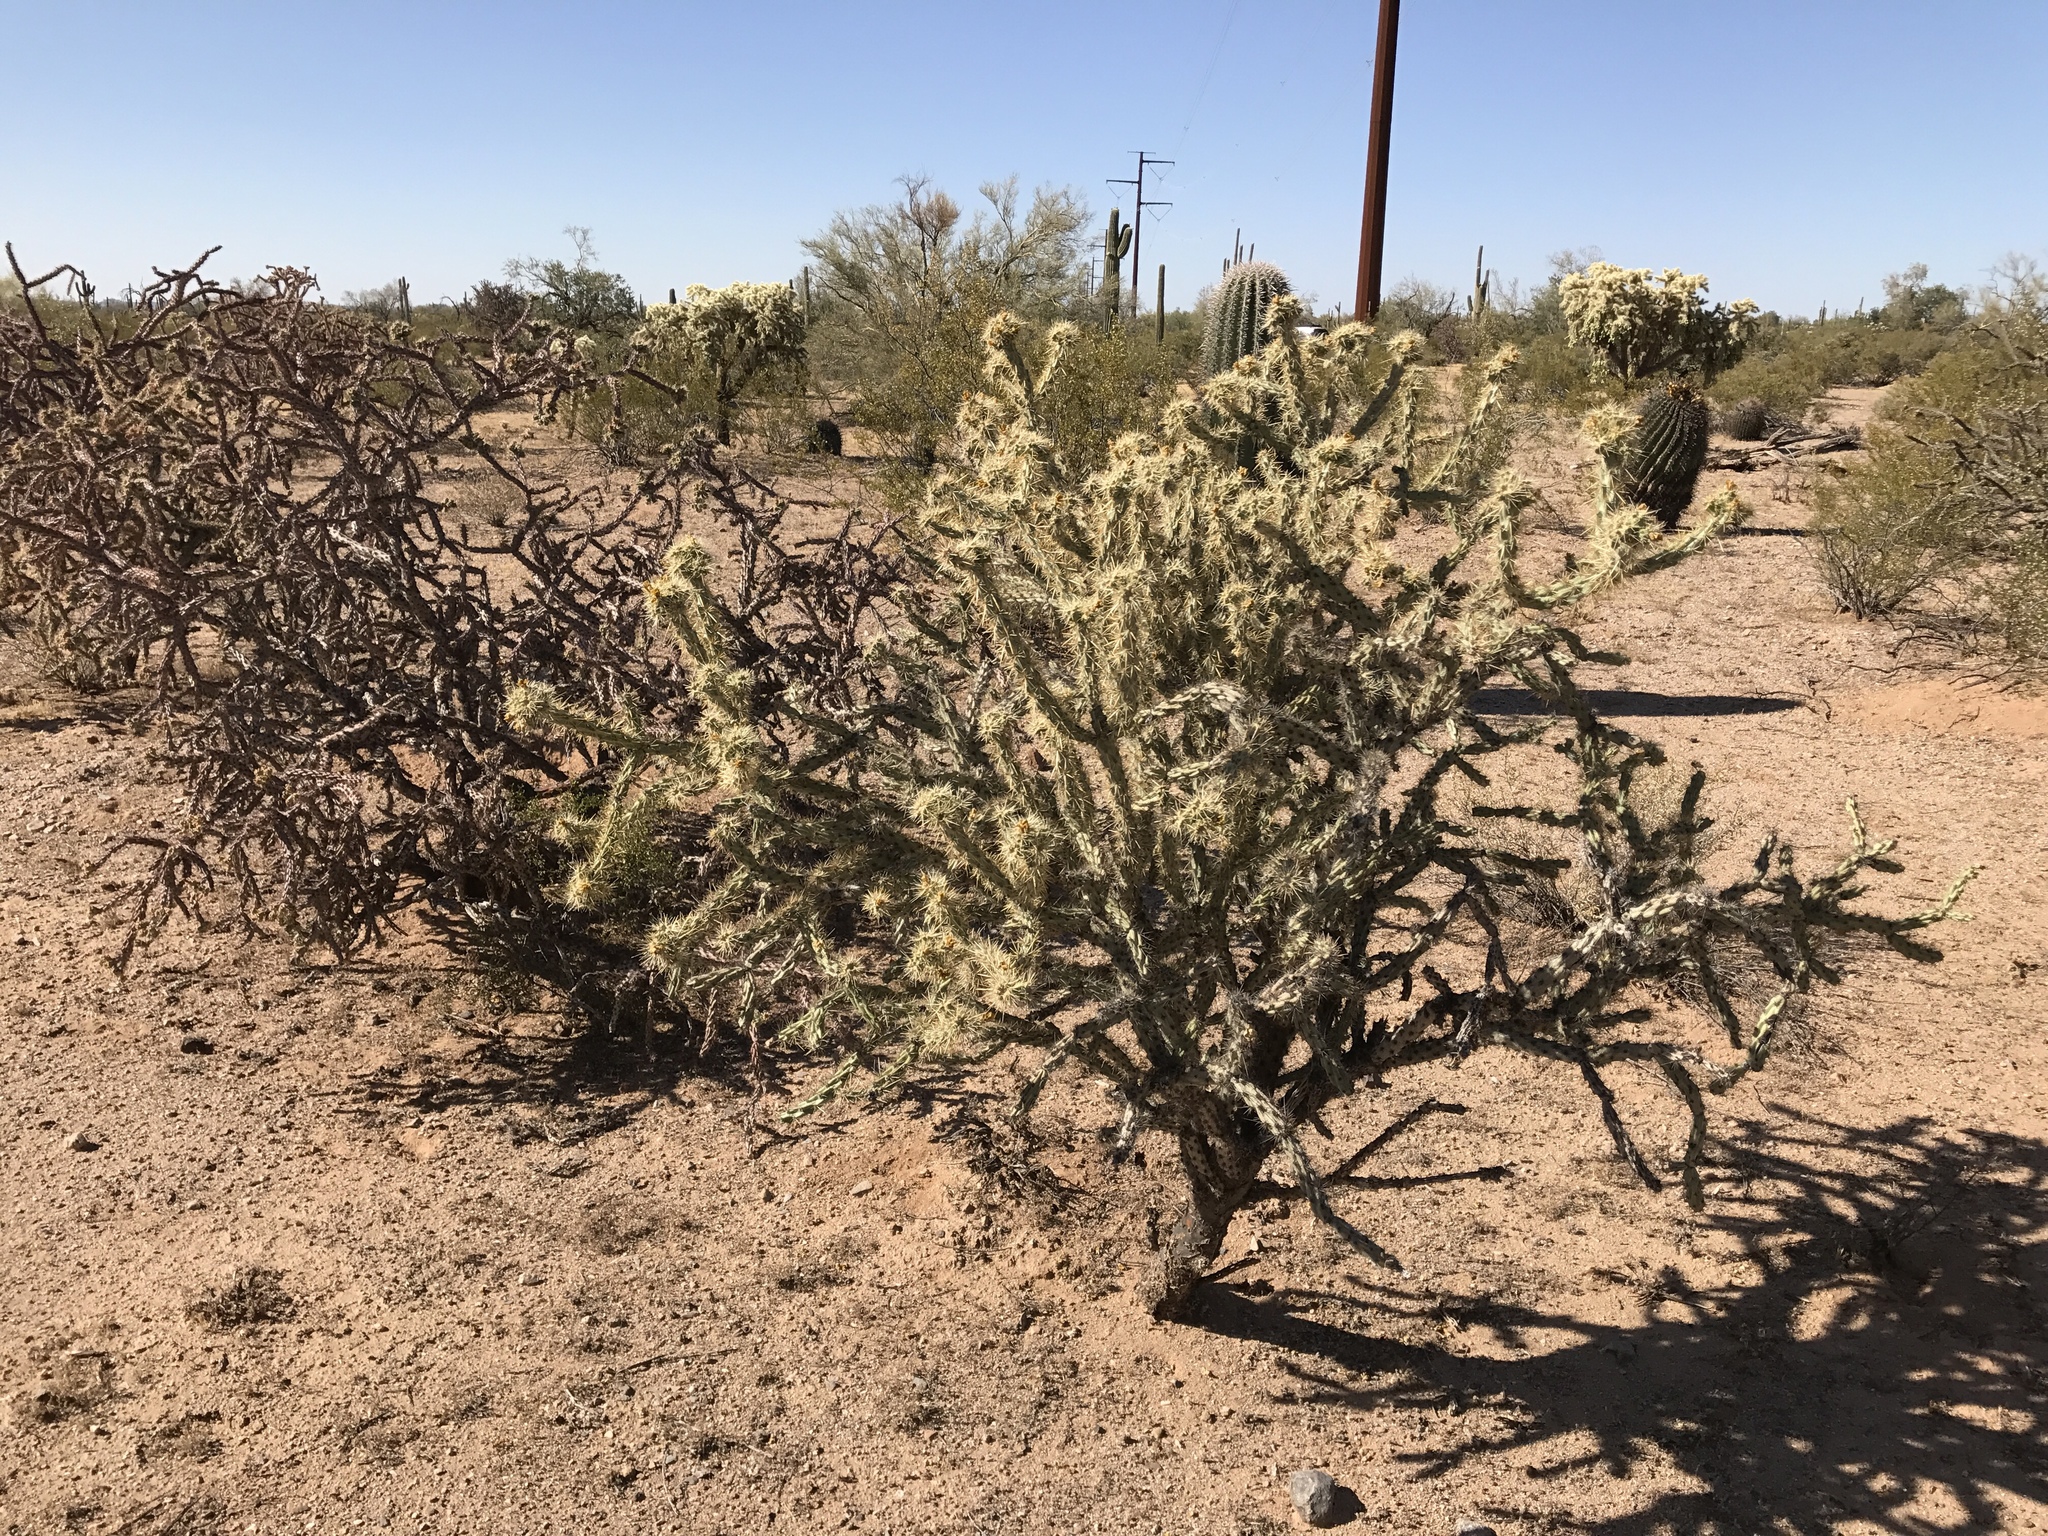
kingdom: Plantae
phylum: Tracheophyta
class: Magnoliopsida
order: Caryophyllales
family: Cactaceae
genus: Cylindropuntia
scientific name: Cylindropuntia acanthocarpa
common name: Buckhorn cholla
